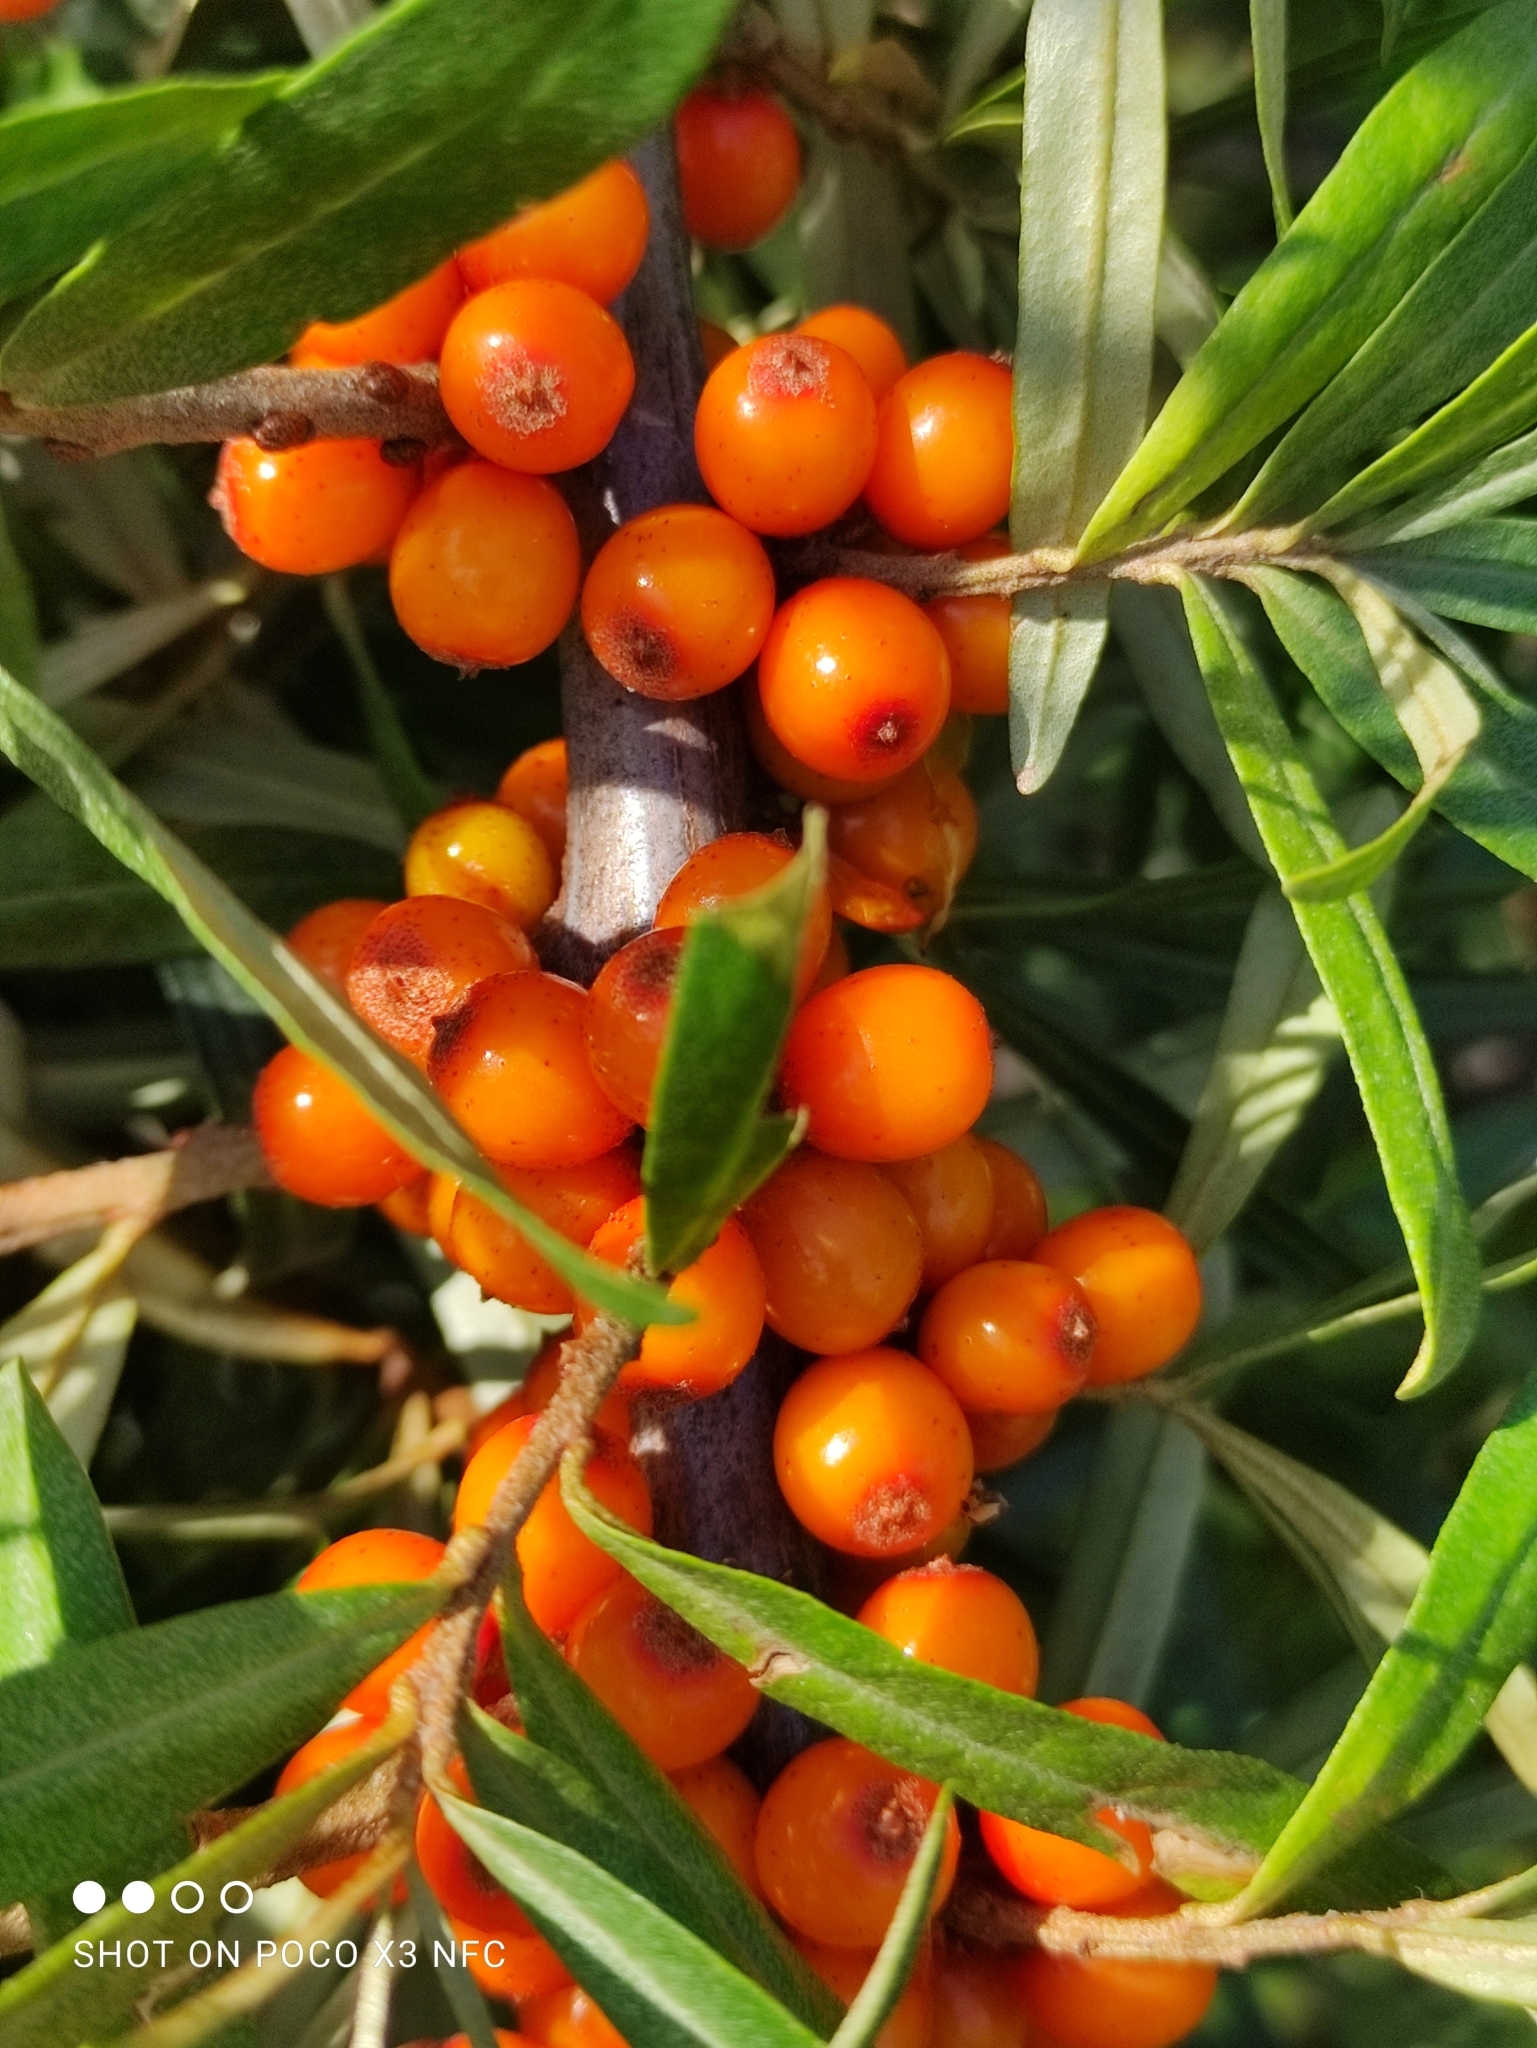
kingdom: Plantae
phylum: Tracheophyta
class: Magnoliopsida
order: Rosales
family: Elaeagnaceae
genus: Hippophae
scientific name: Hippophae rhamnoides
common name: Sea-buckthorn
